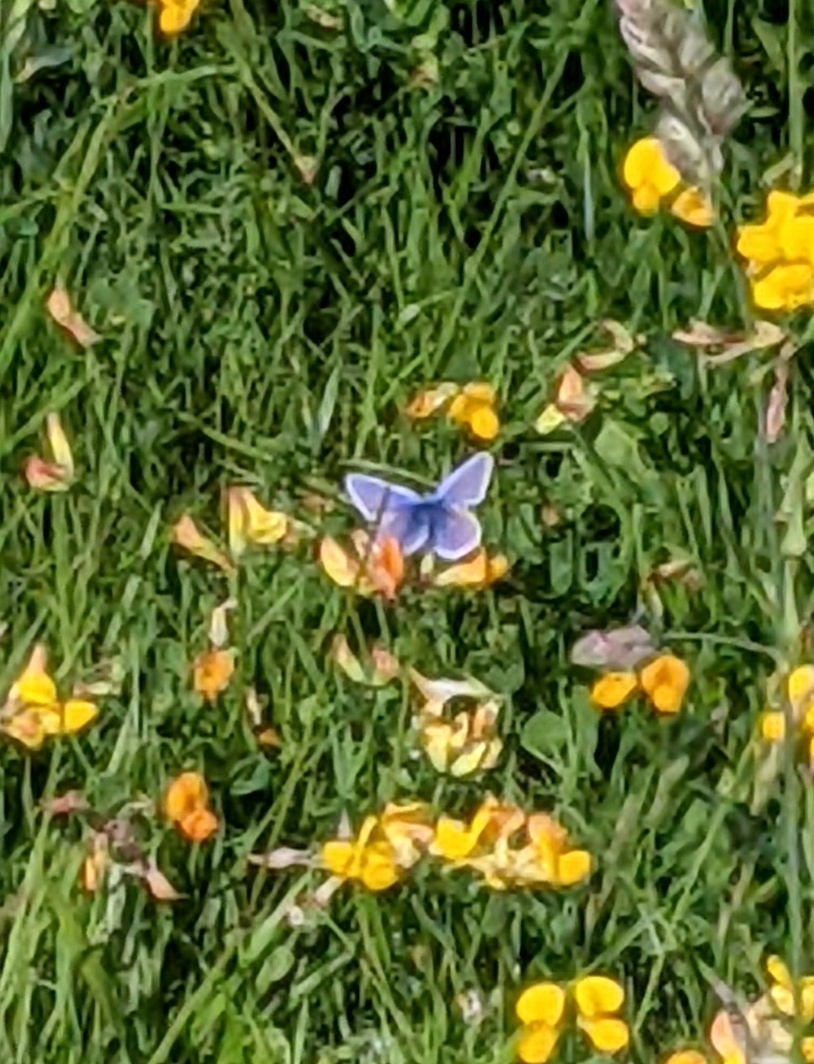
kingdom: Animalia
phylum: Arthropoda
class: Insecta
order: Lepidoptera
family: Lycaenidae
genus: Polyommatus
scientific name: Polyommatus icarus
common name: Common blue
